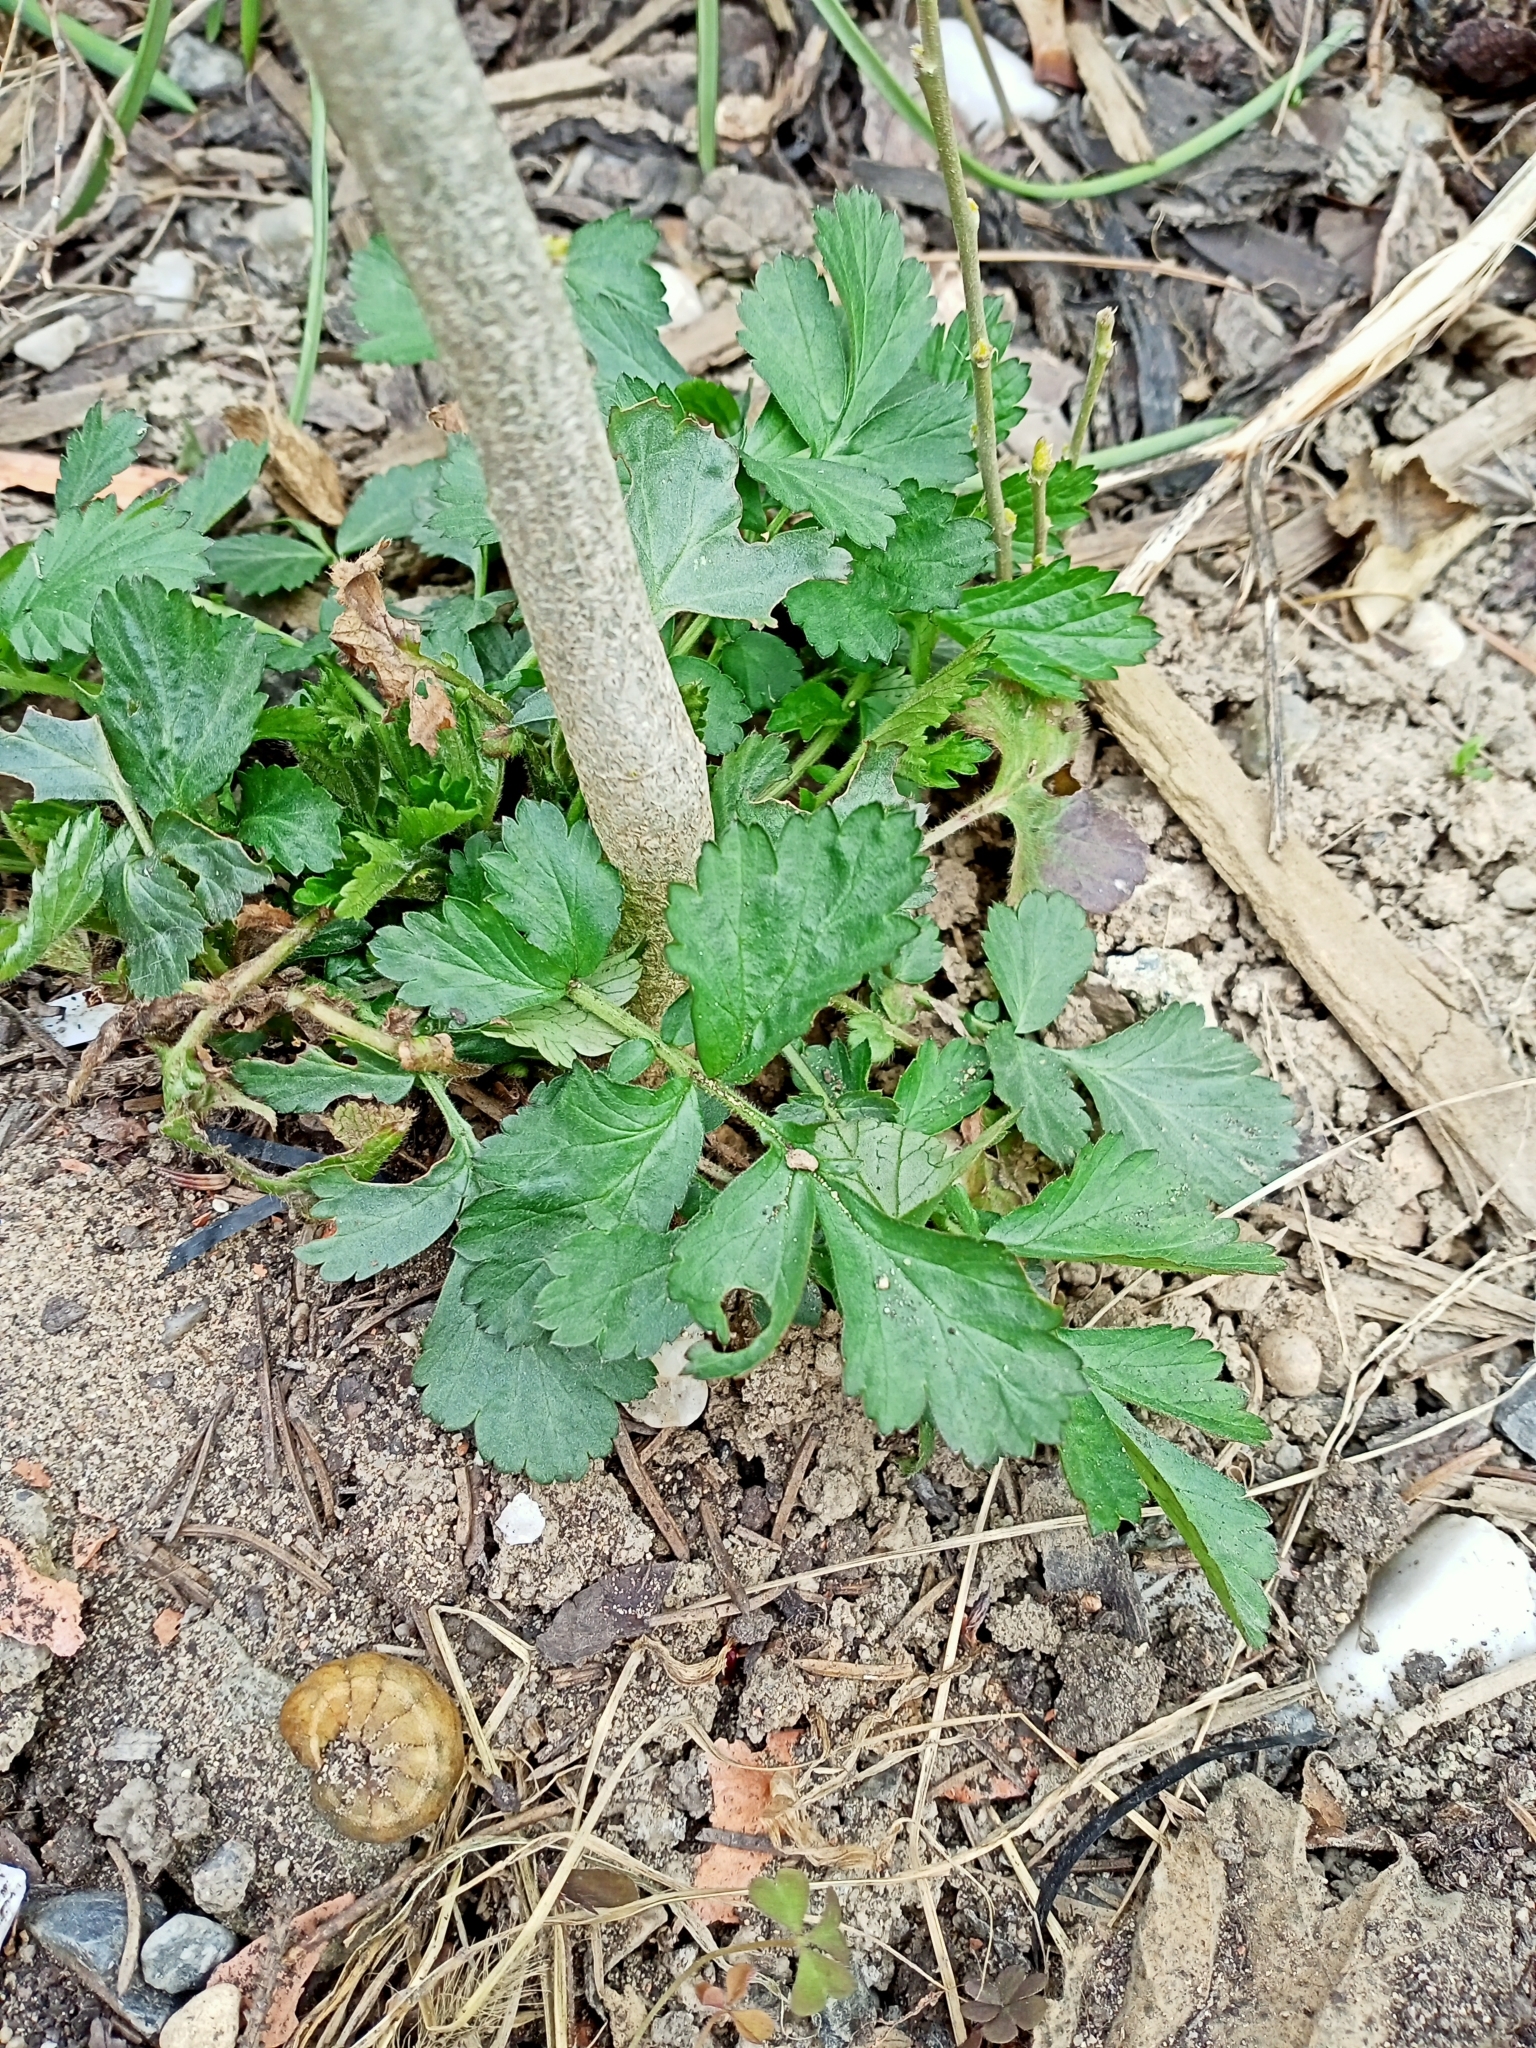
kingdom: Plantae
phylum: Tracheophyta
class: Magnoliopsida
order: Rosales
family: Rosaceae
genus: Geum
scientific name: Geum urbanum
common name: Wood avens
